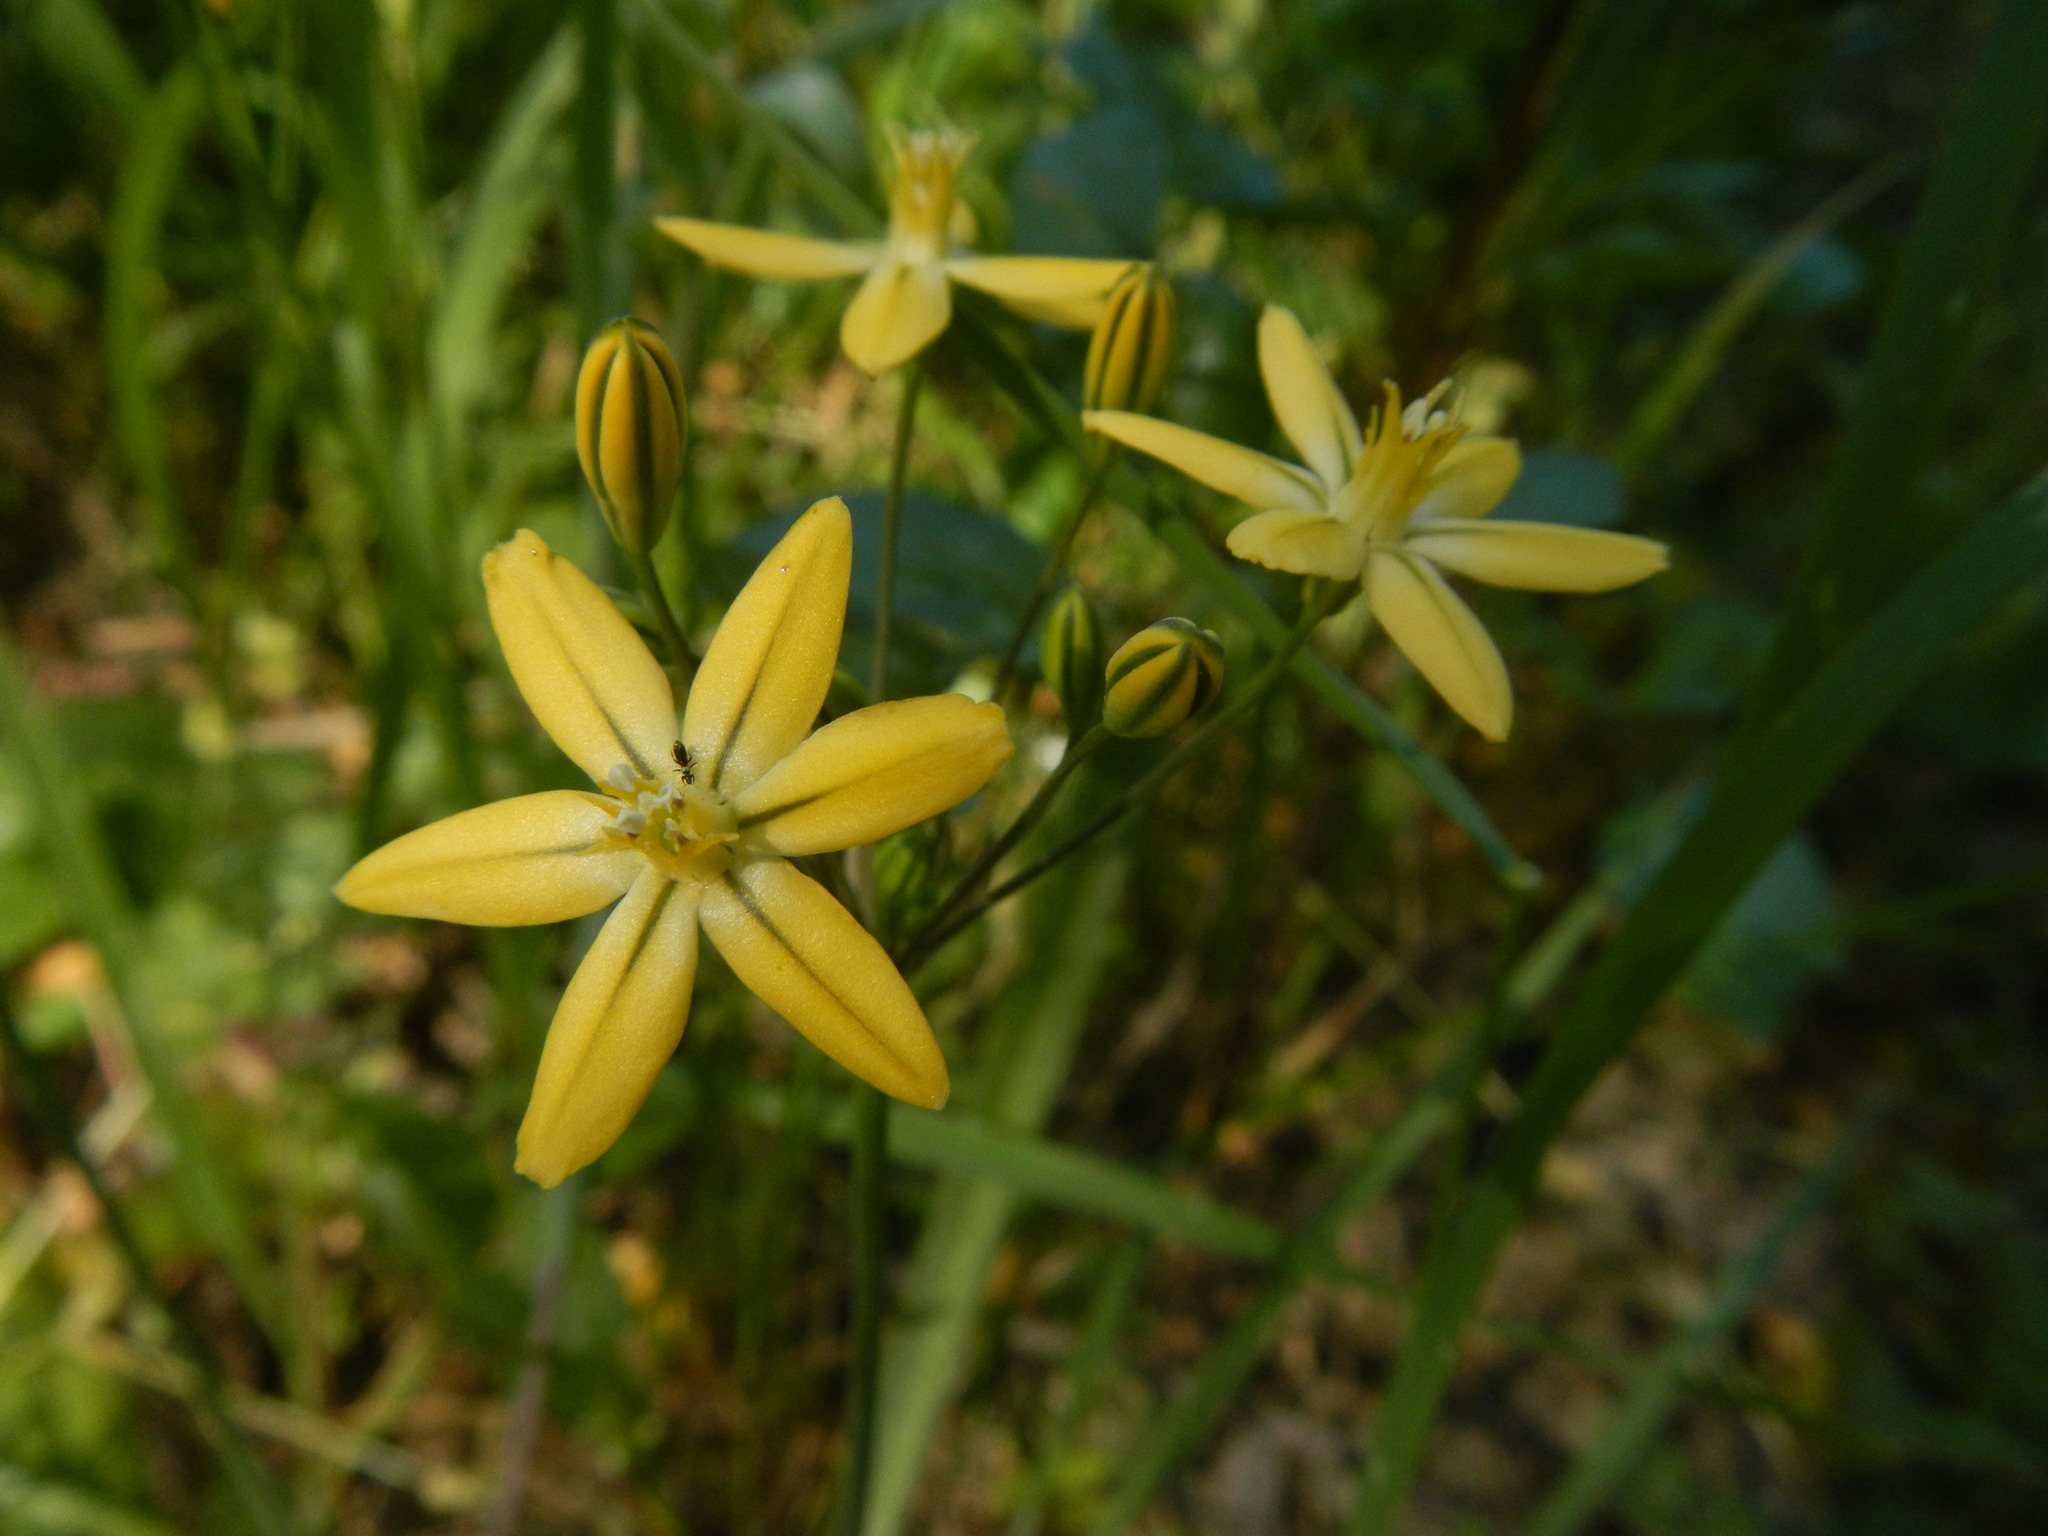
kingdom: Plantae
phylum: Tracheophyta
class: Liliopsida
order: Asparagales
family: Asparagaceae
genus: Triteleia
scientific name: Triteleia ixioides
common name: Yellow-brodiaea
